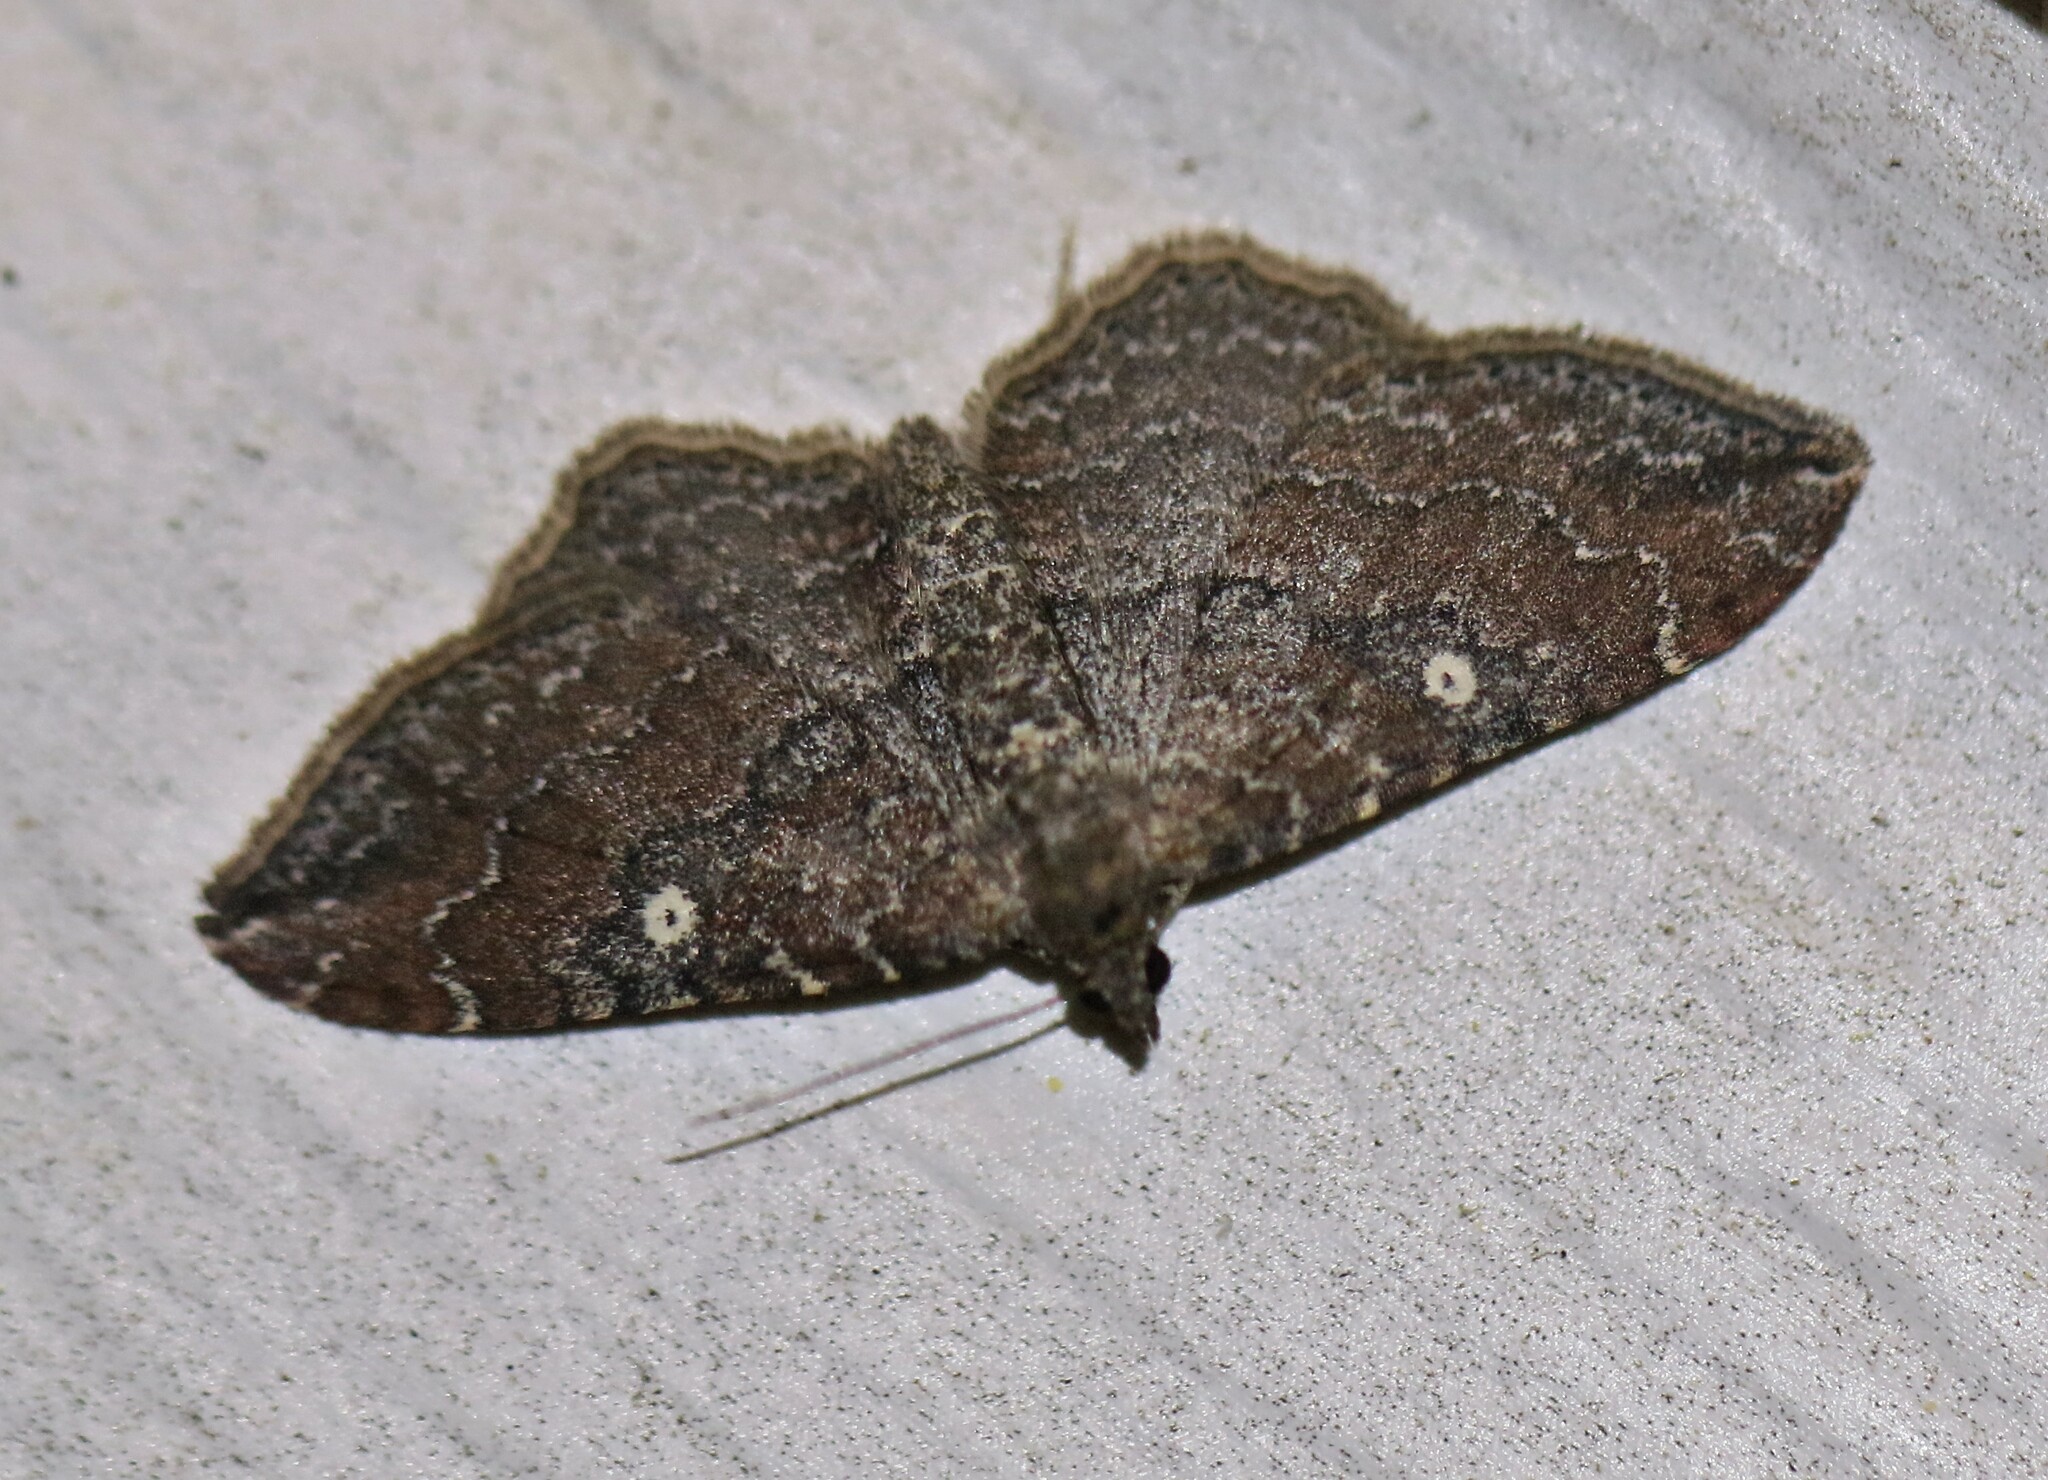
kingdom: Animalia
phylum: Arthropoda
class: Insecta
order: Lepidoptera
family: Geometridae
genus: Orthonama
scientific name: Orthonama obstipata
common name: The gem
